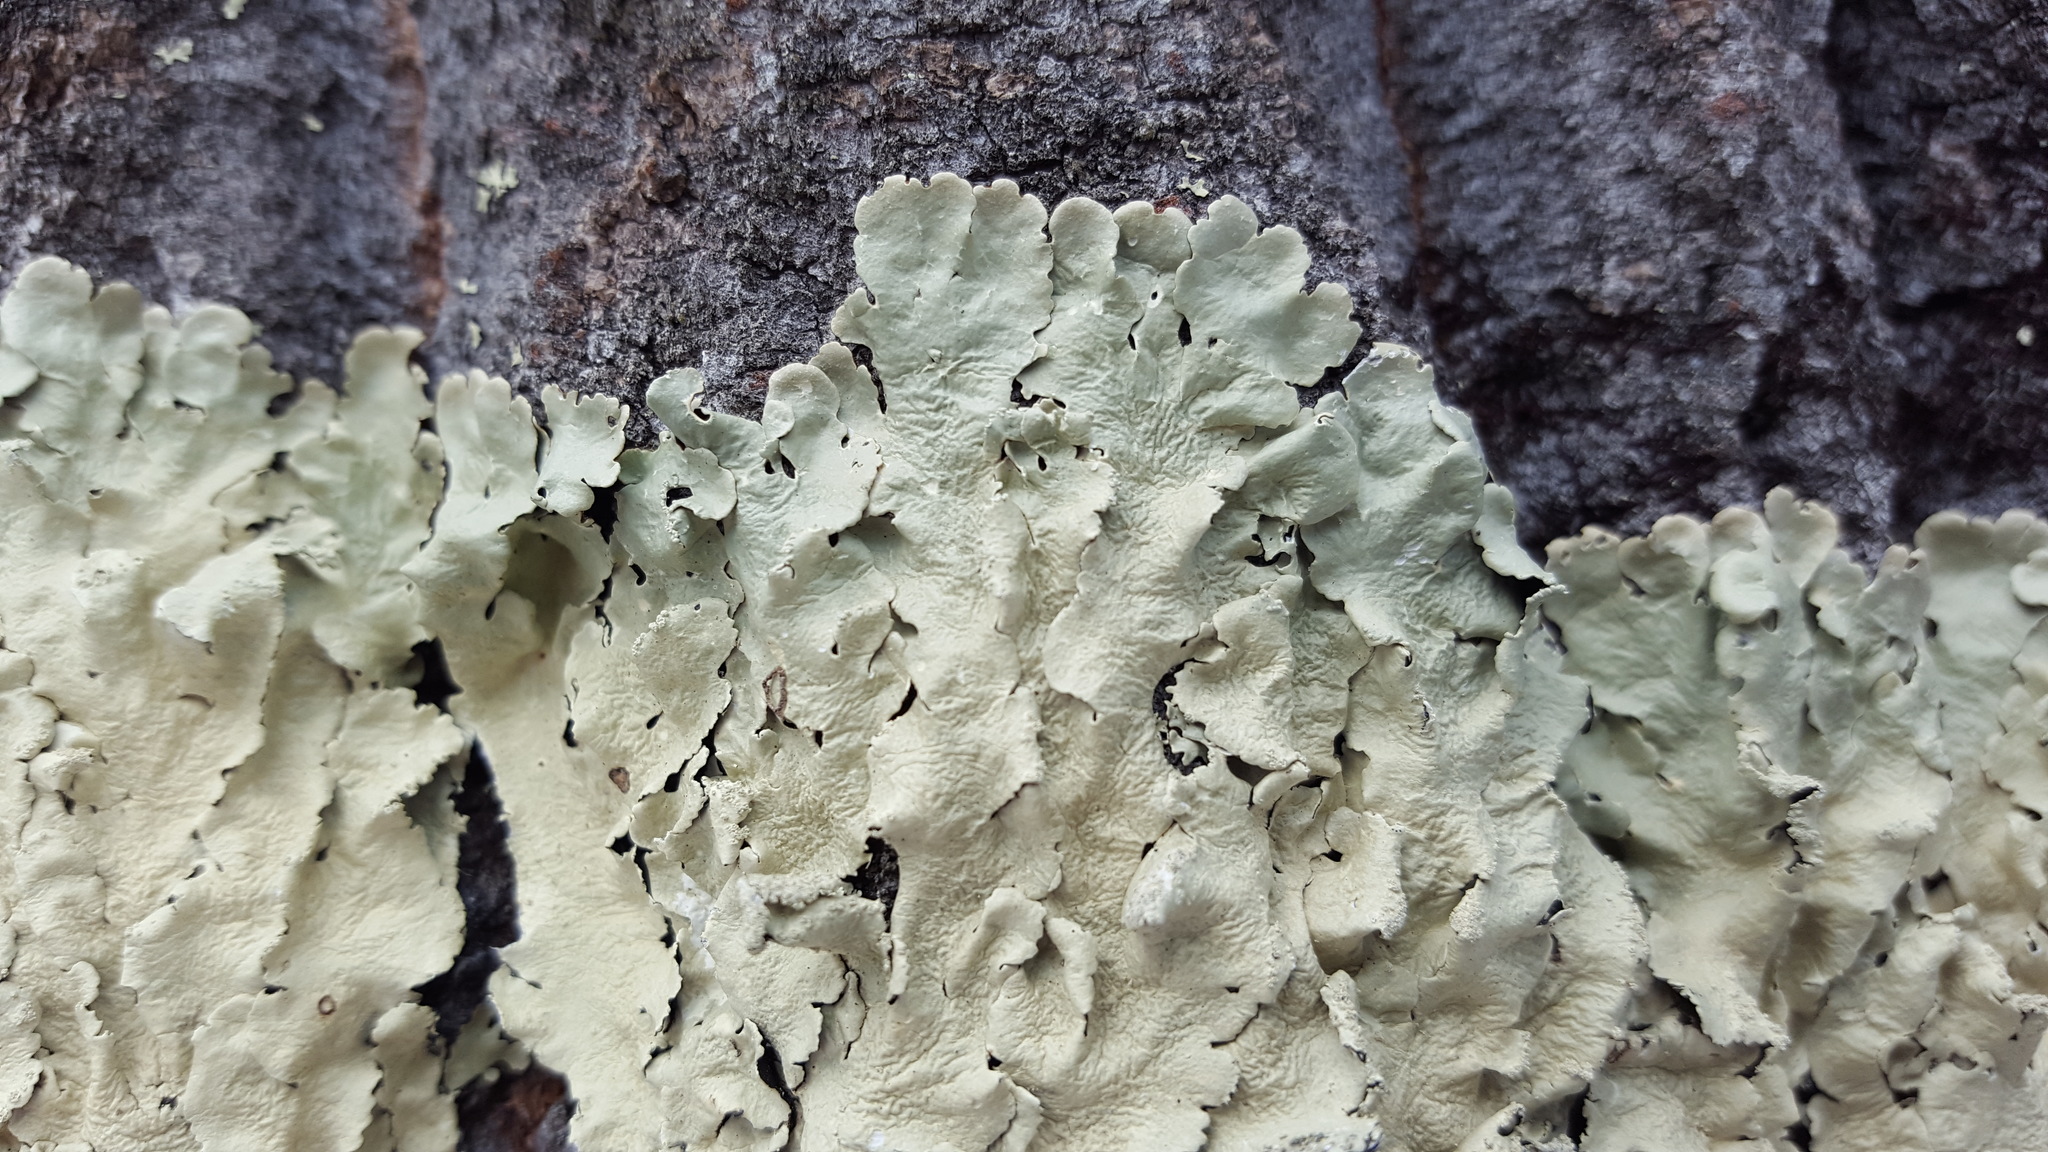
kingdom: Fungi
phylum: Ascomycota
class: Lecanoromycetes
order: Lecanorales
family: Parmeliaceae
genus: Flavoparmelia
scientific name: Flavoparmelia caperata
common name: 40-mile per hour lichen
